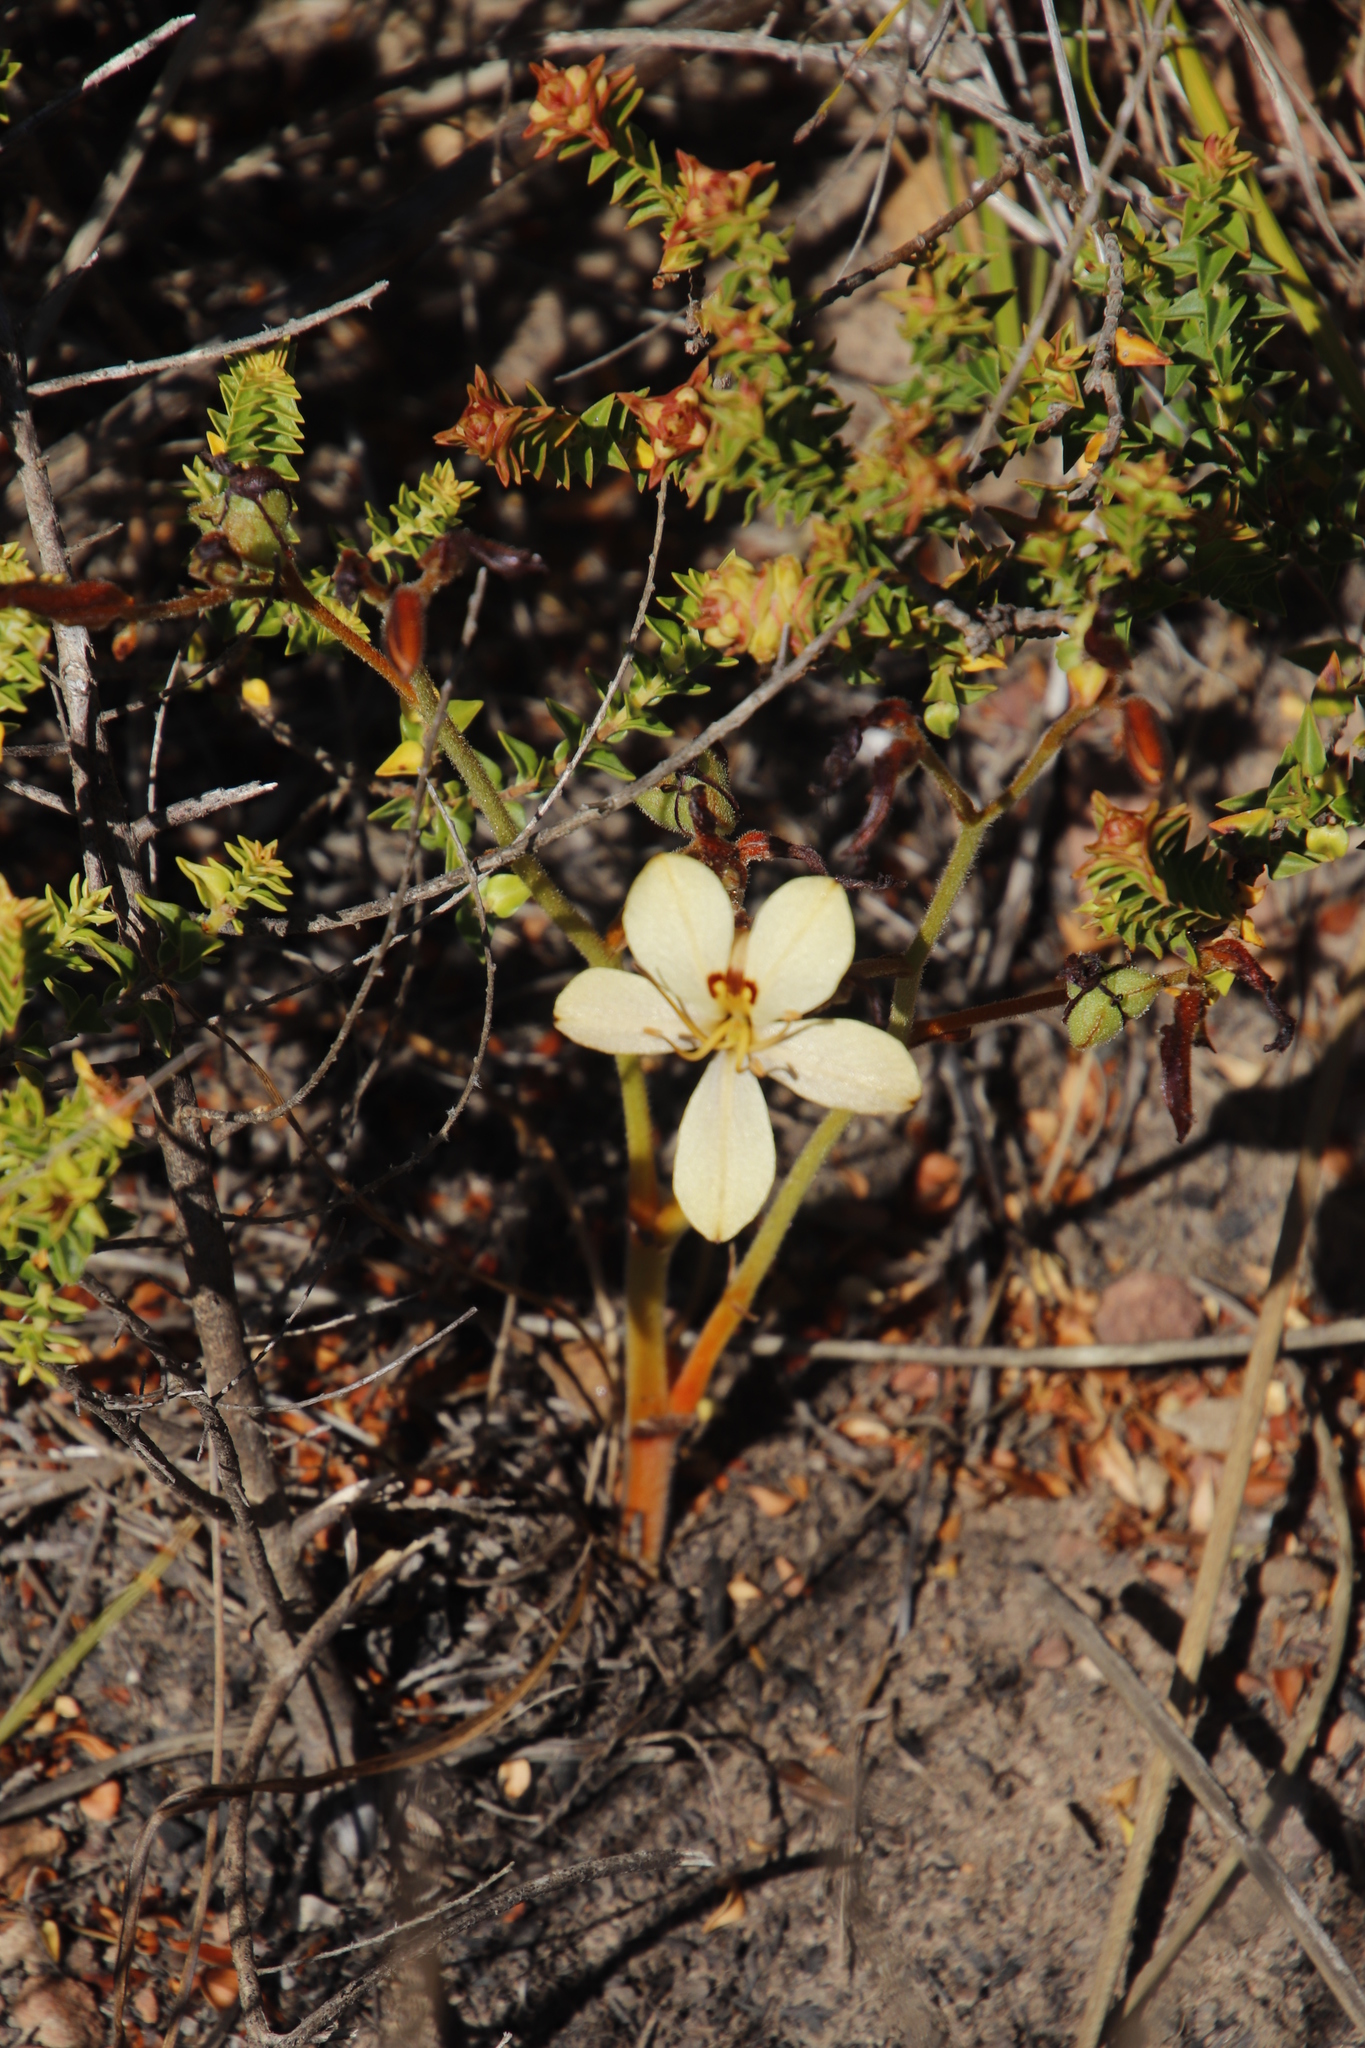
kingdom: Plantae
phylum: Tracheophyta
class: Liliopsida
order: Commelinales
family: Haemodoraceae
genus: Wachendorfia
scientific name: Wachendorfia paniculata
